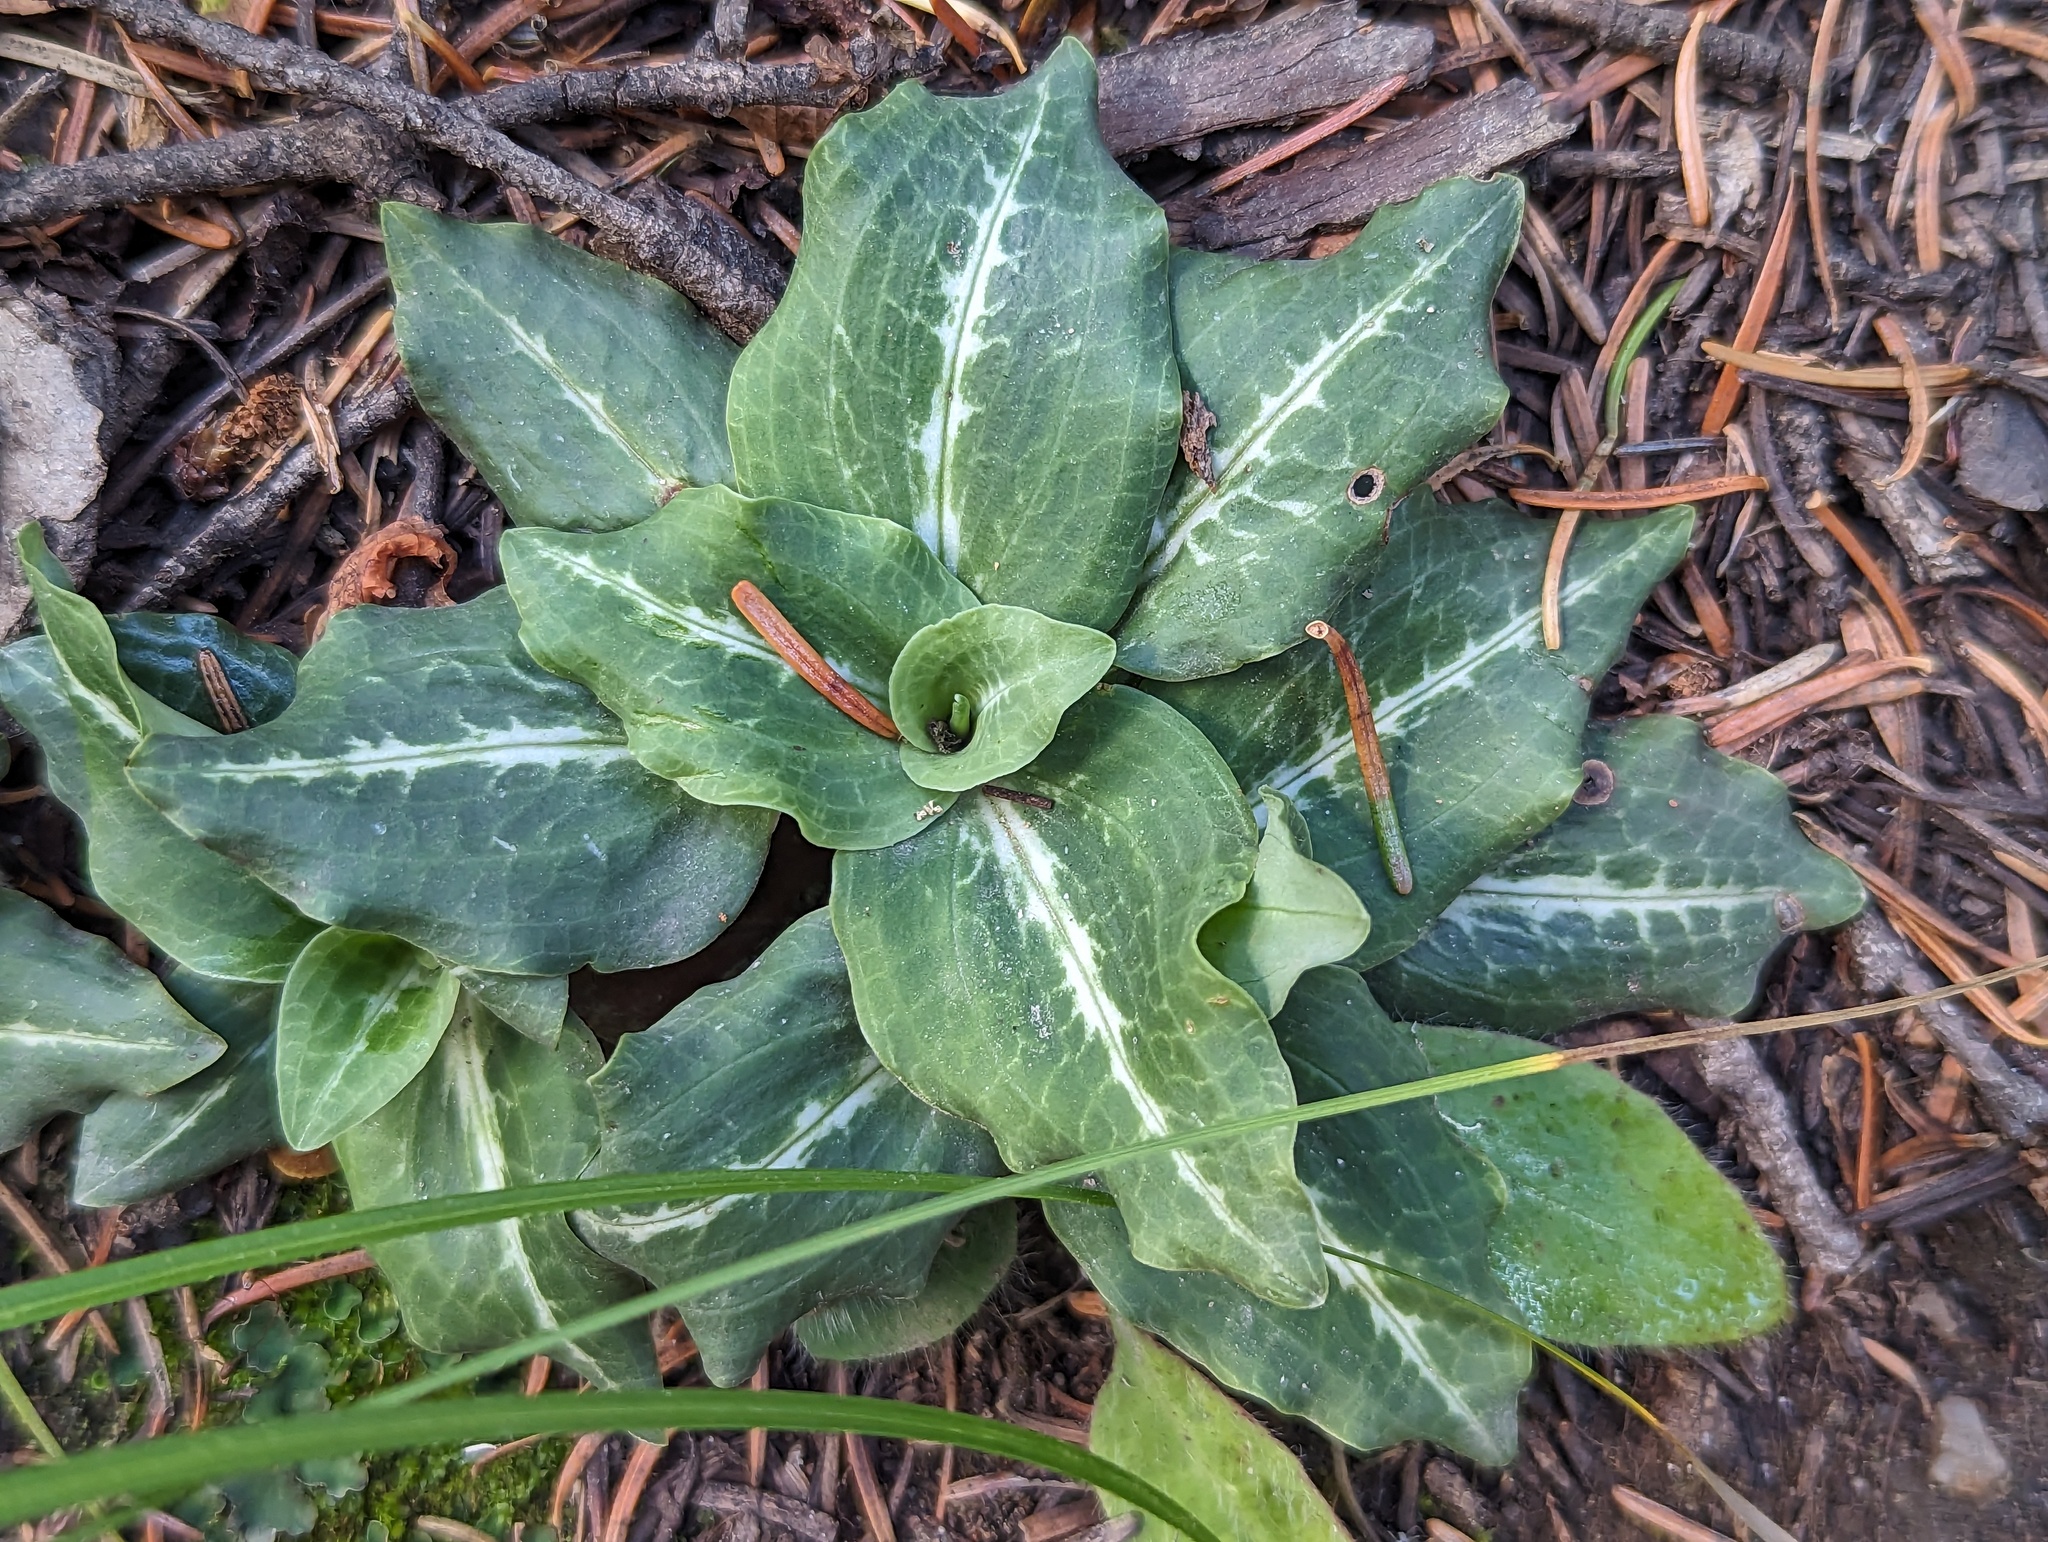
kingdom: Plantae
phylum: Tracheophyta
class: Liliopsida
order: Asparagales
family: Orchidaceae
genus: Goodyera
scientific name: Goodyera oblongifolia
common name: Giant rattlesnake-plantain
